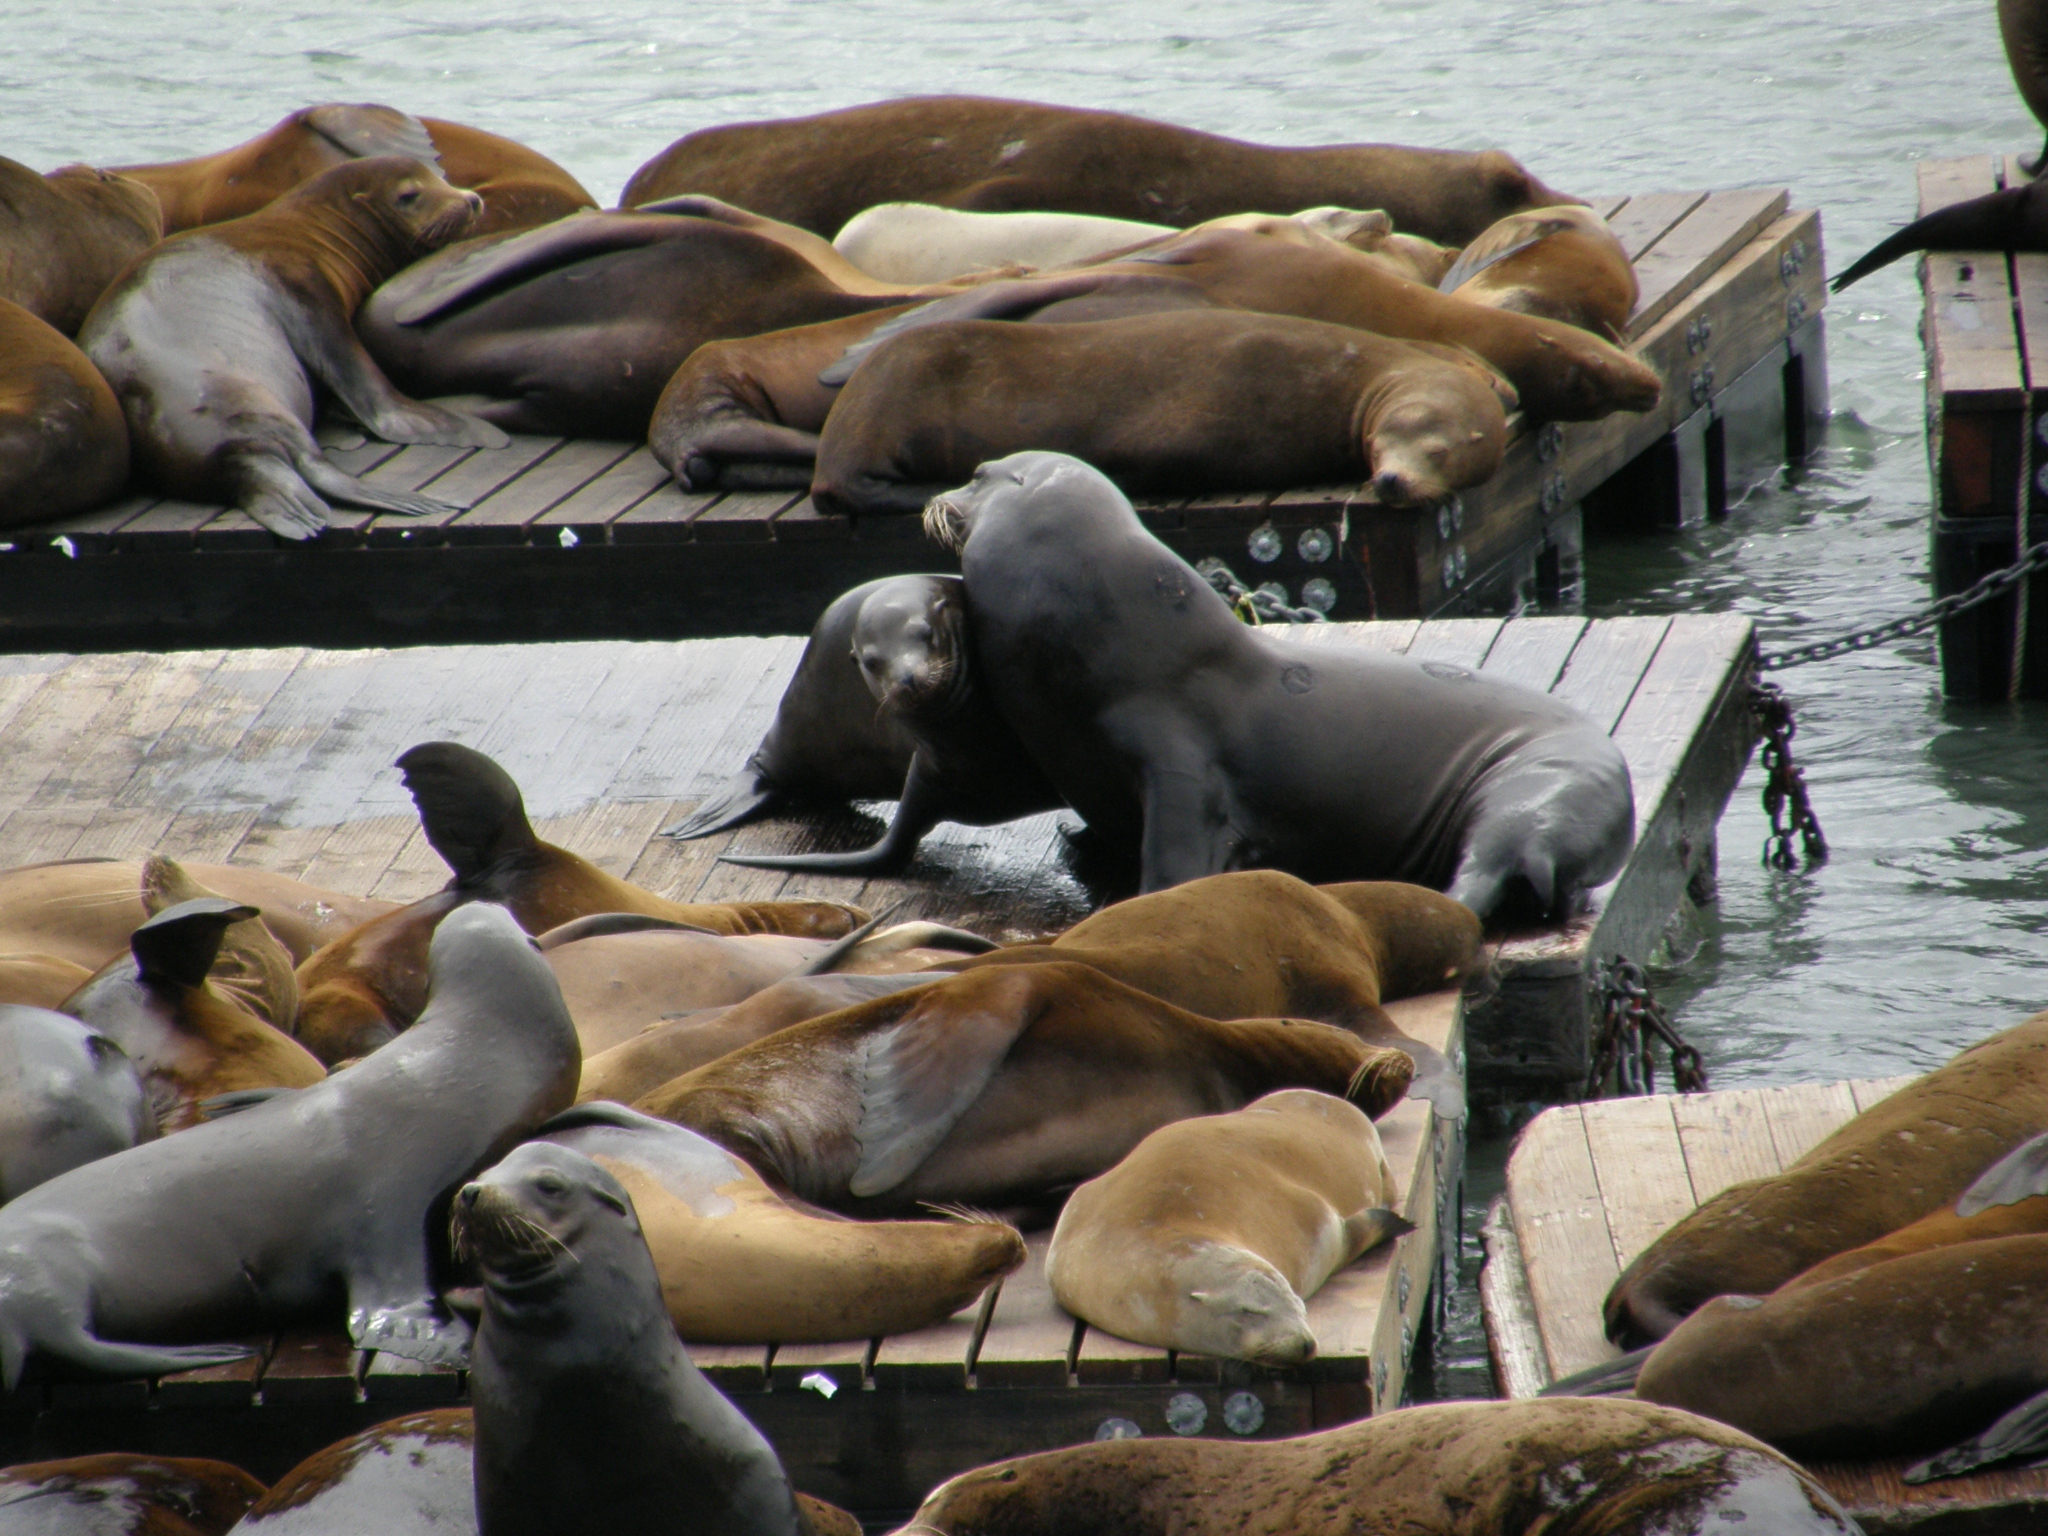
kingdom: Animalia
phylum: Chordata
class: Mammalia
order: Carnivora
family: Otariidae
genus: Zalophus
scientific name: Zalophus californianus
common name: California sea lion
